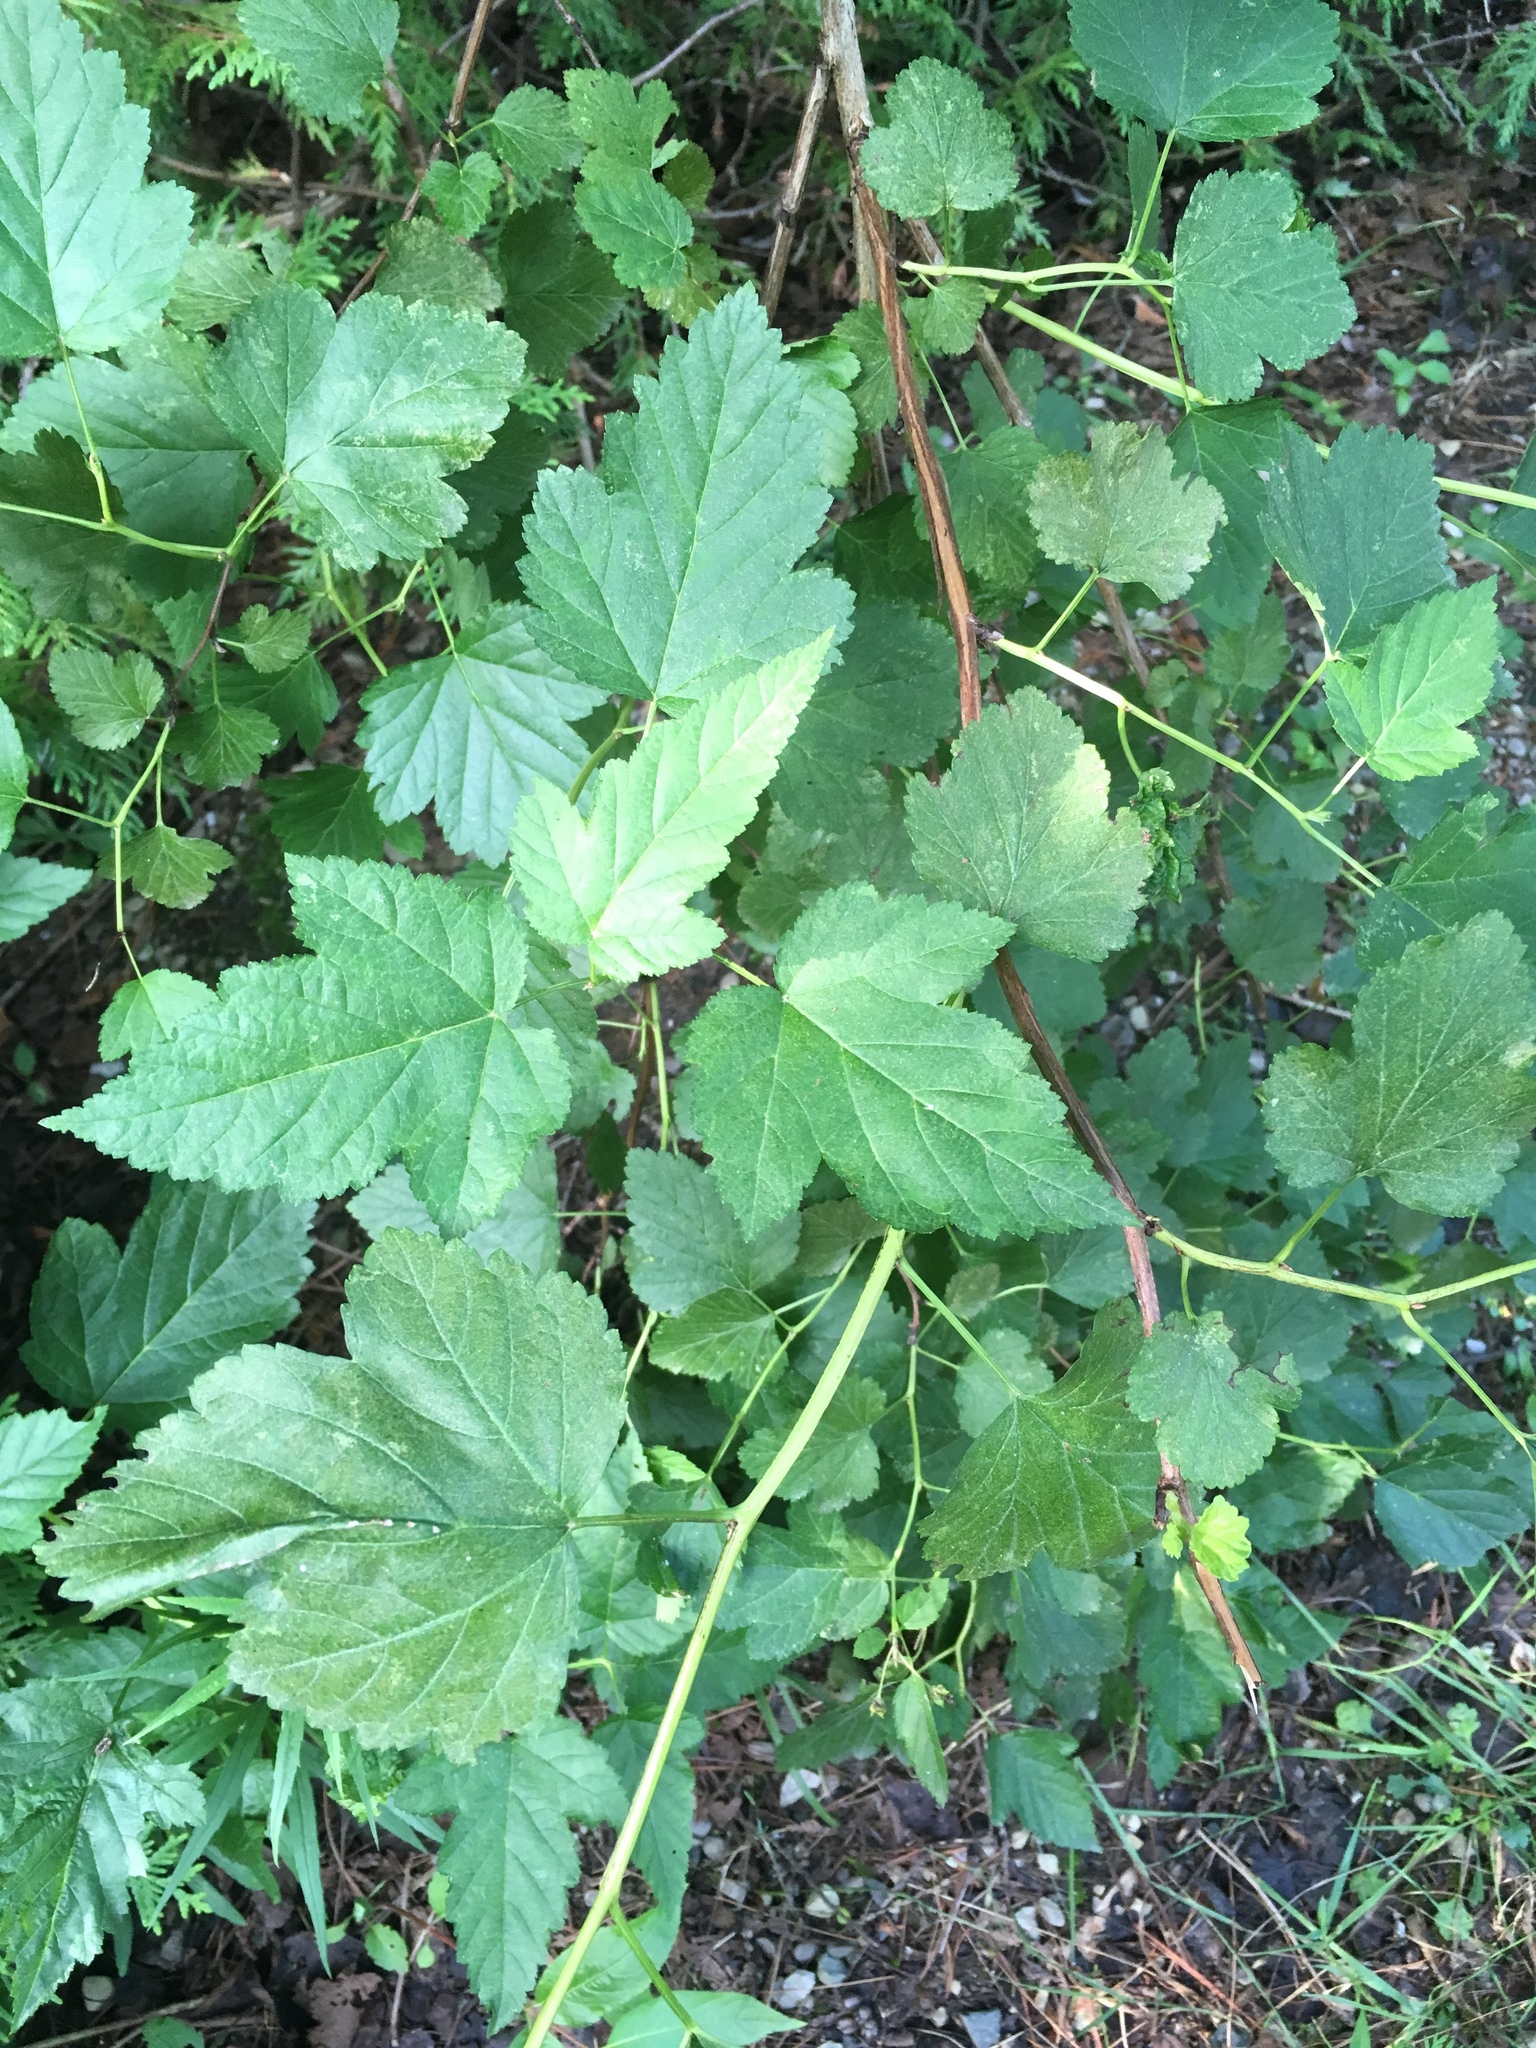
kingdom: Plantae
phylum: Tracheophyta
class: Magnoliopsida
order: Rosales
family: Rosaceae
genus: Physocarpus
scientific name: Physocarpus opulifolius
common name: Ninebark
